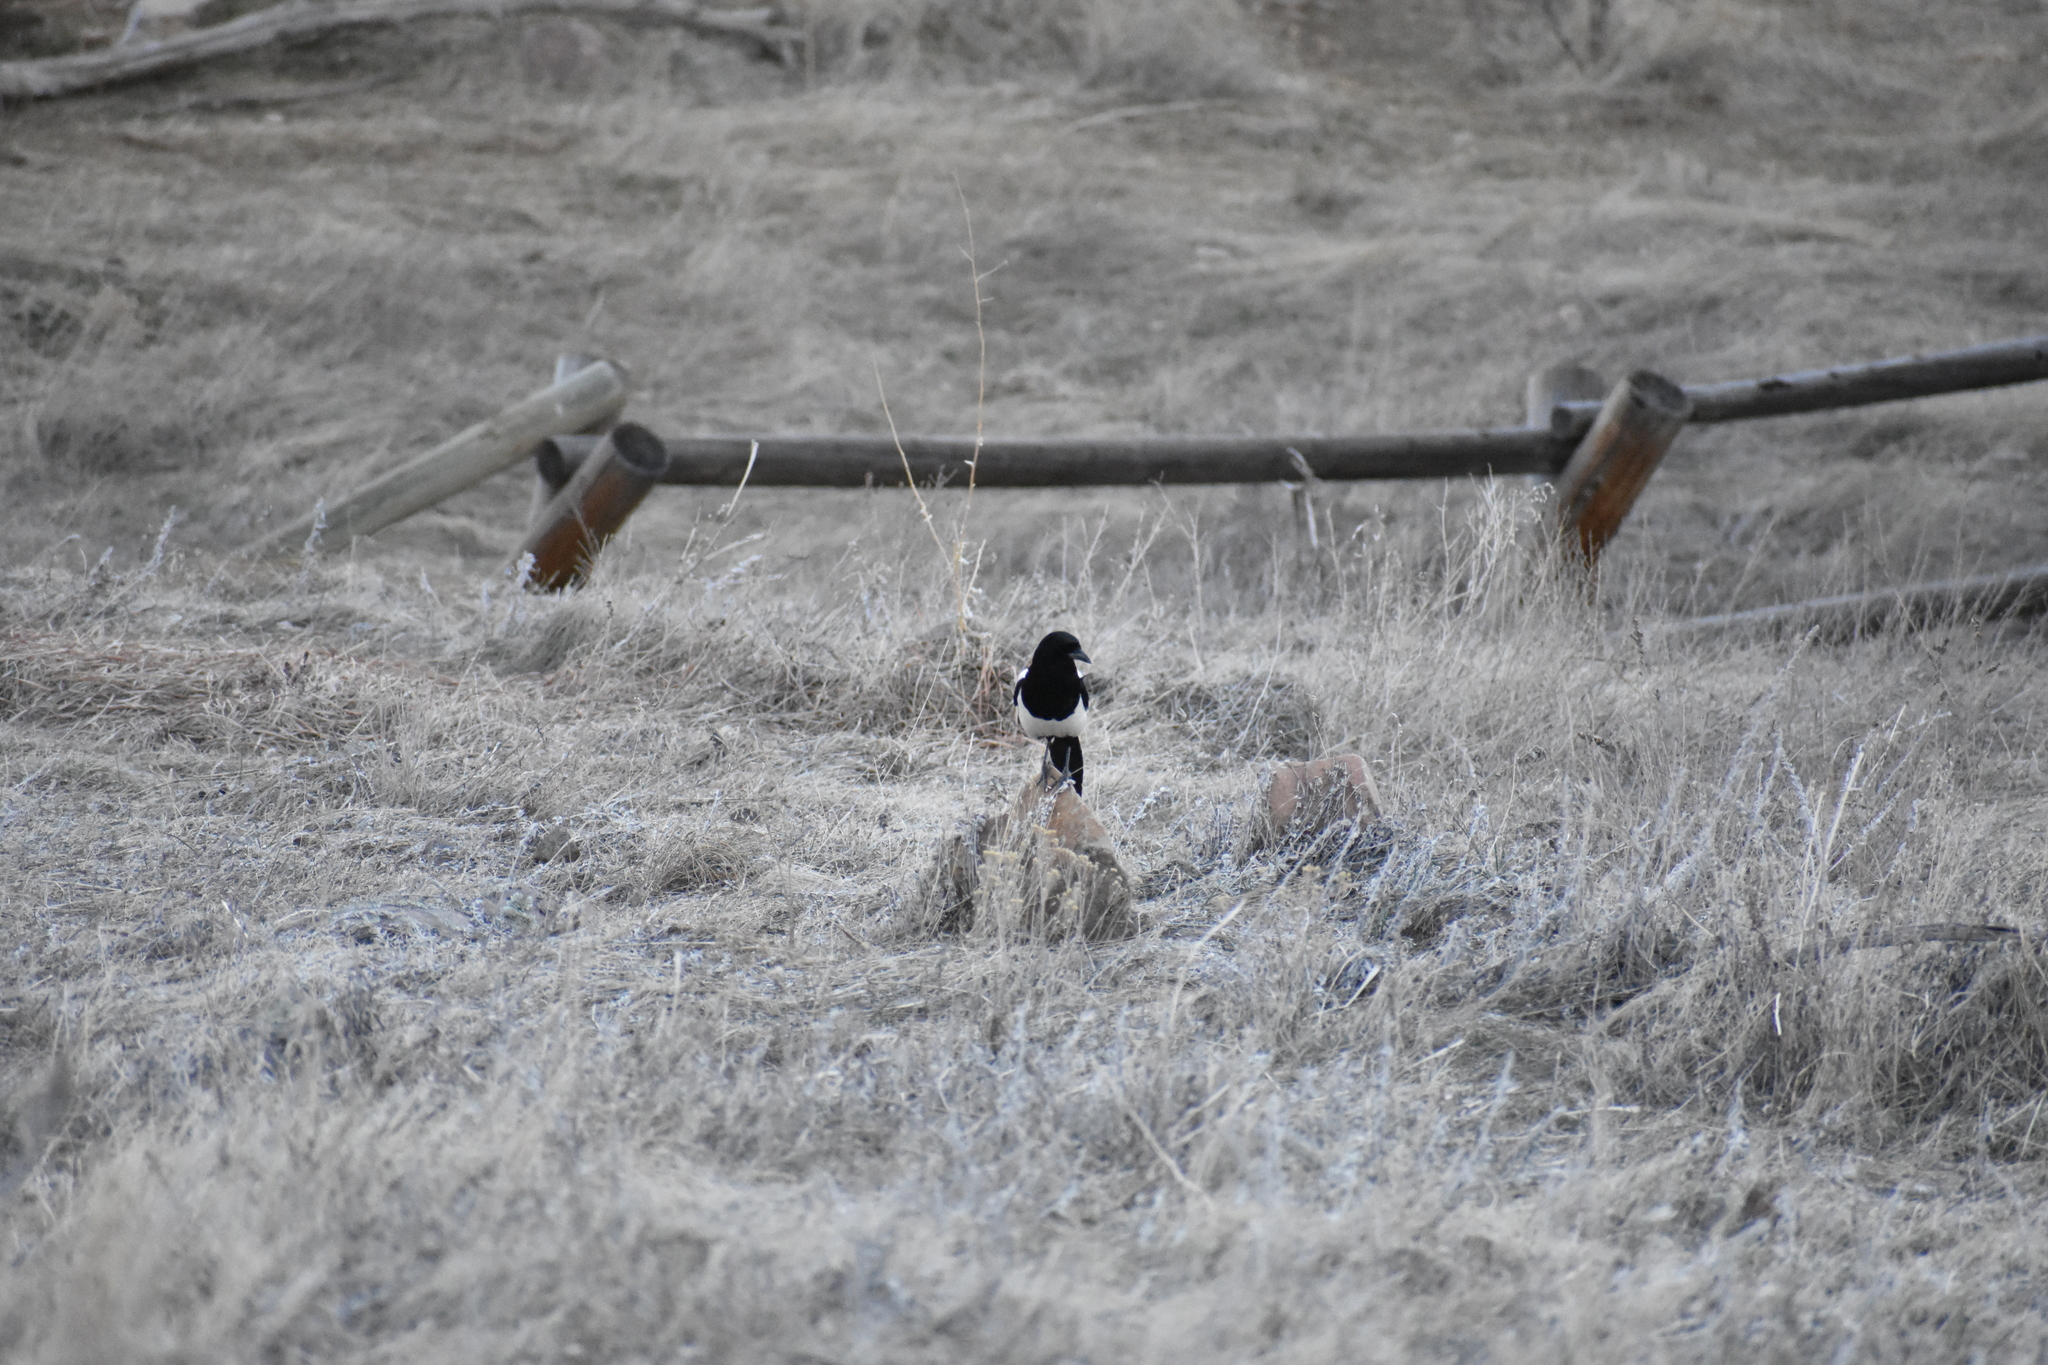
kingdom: Animalia
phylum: Chordata
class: Aves
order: Passeriformes
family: Corvidae
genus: Pica
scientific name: Pica hudsonia
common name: Black-billed magpie
